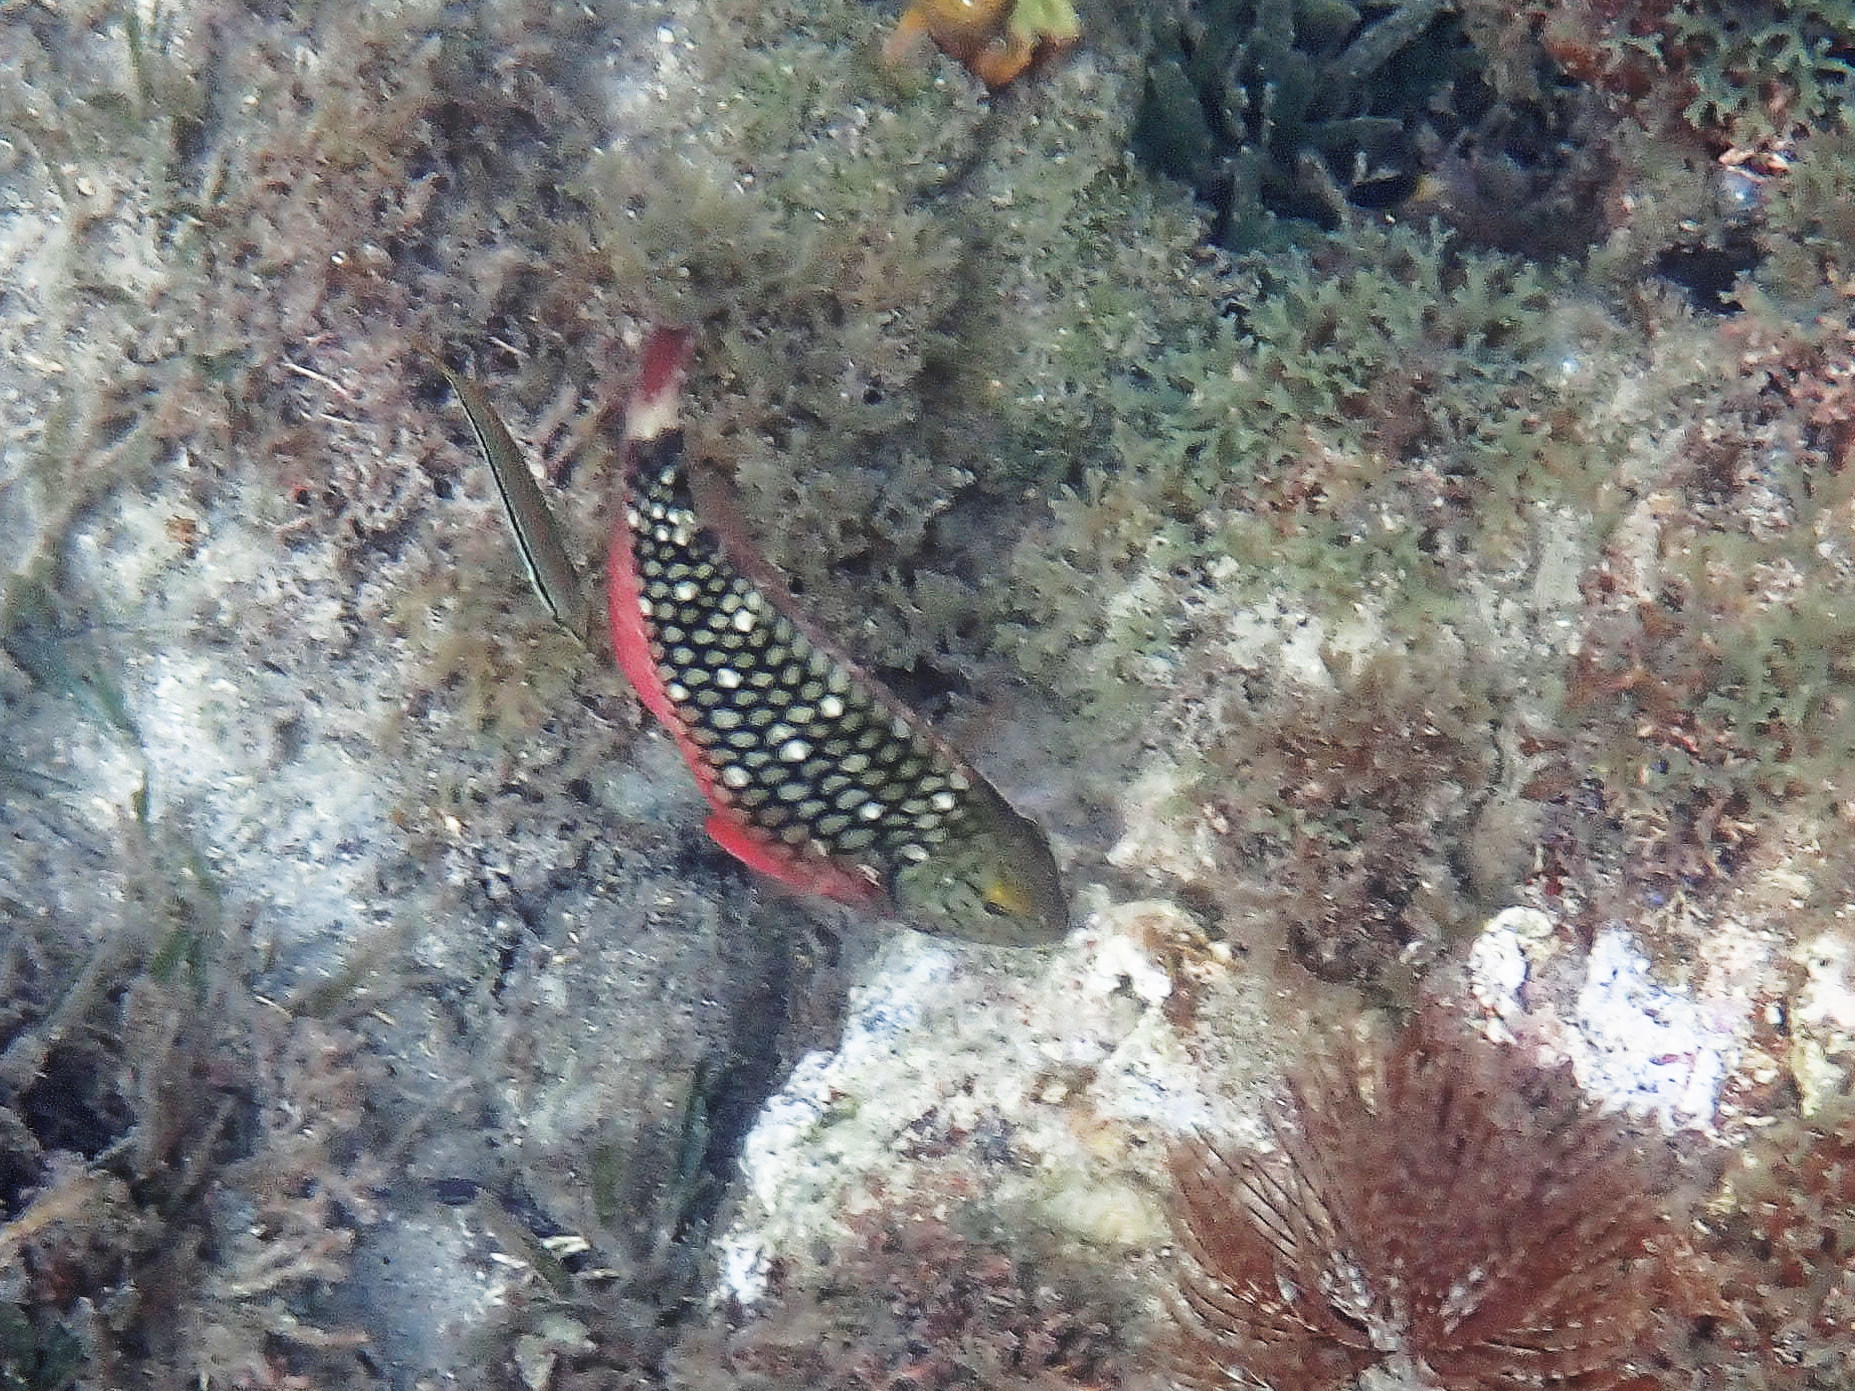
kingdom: Animalia
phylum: Chordata
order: Perciformes
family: Scaridae
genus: Sparisoma
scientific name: Sparisoma viride
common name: Stoplight parrotfish
